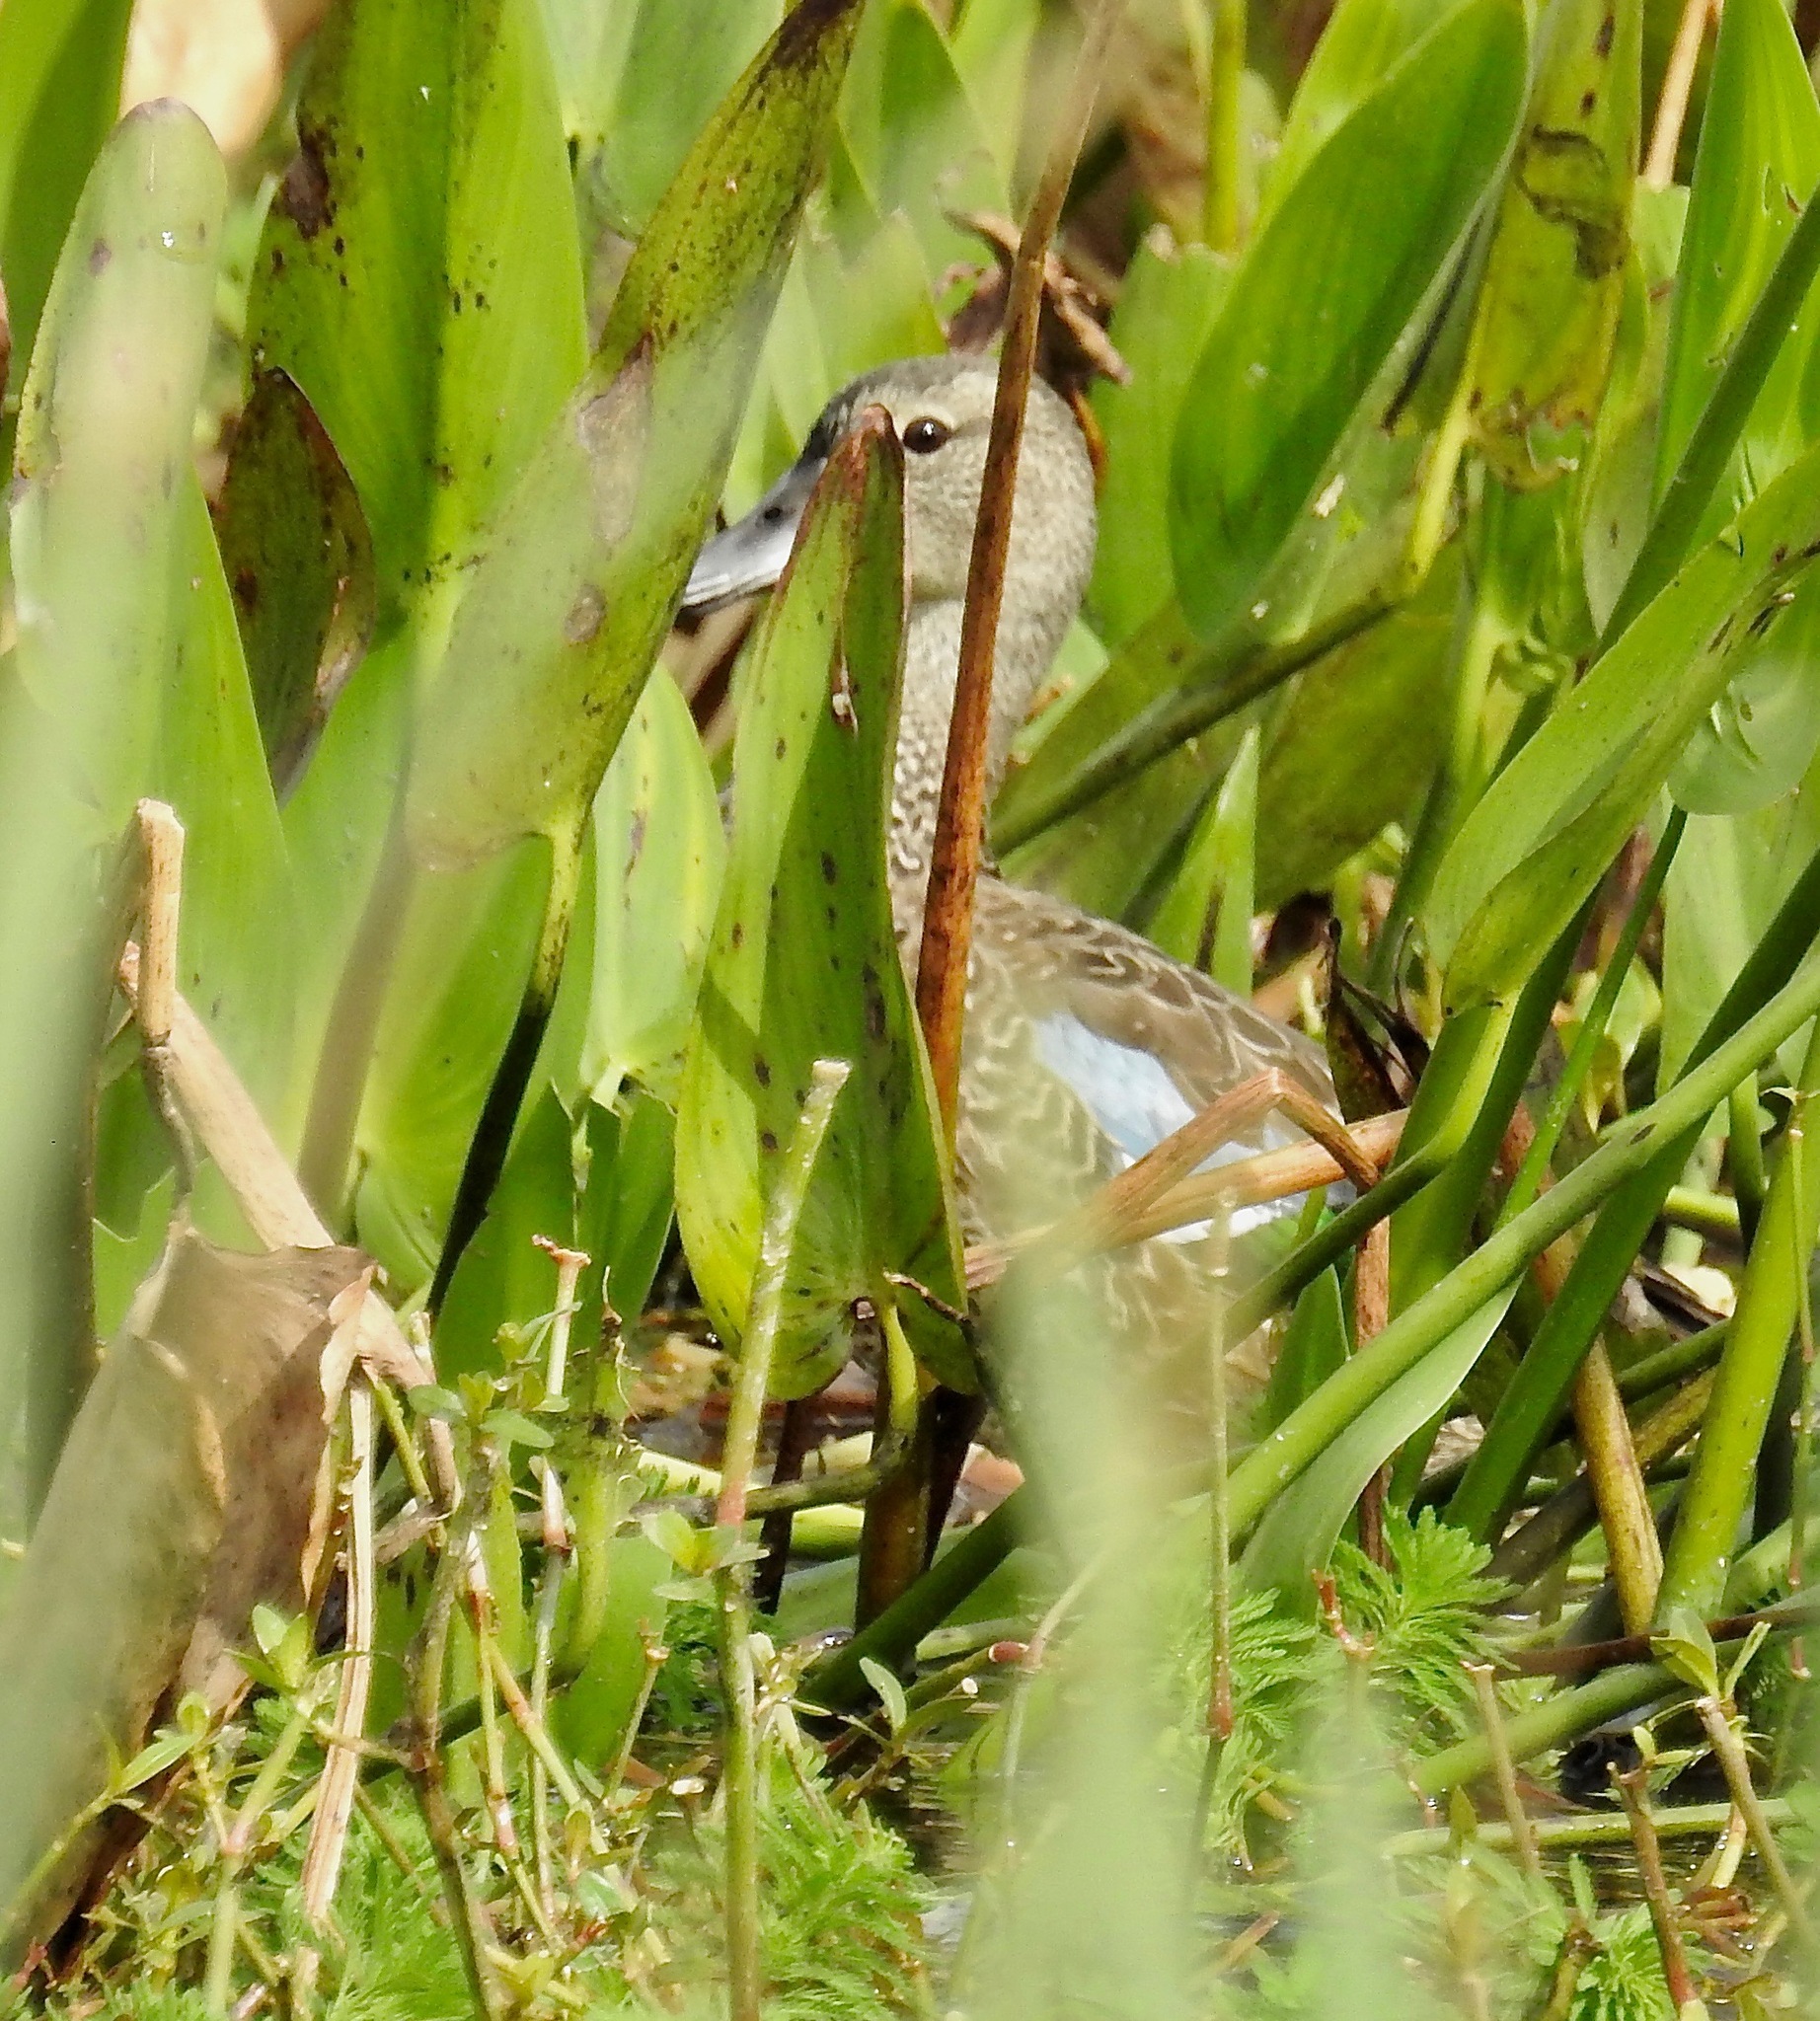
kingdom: Animalia
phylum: Chordata
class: Aves
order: Anseriformes
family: Anatidae
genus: Spatula
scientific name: Spatula discors
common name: Blue-winged teal
